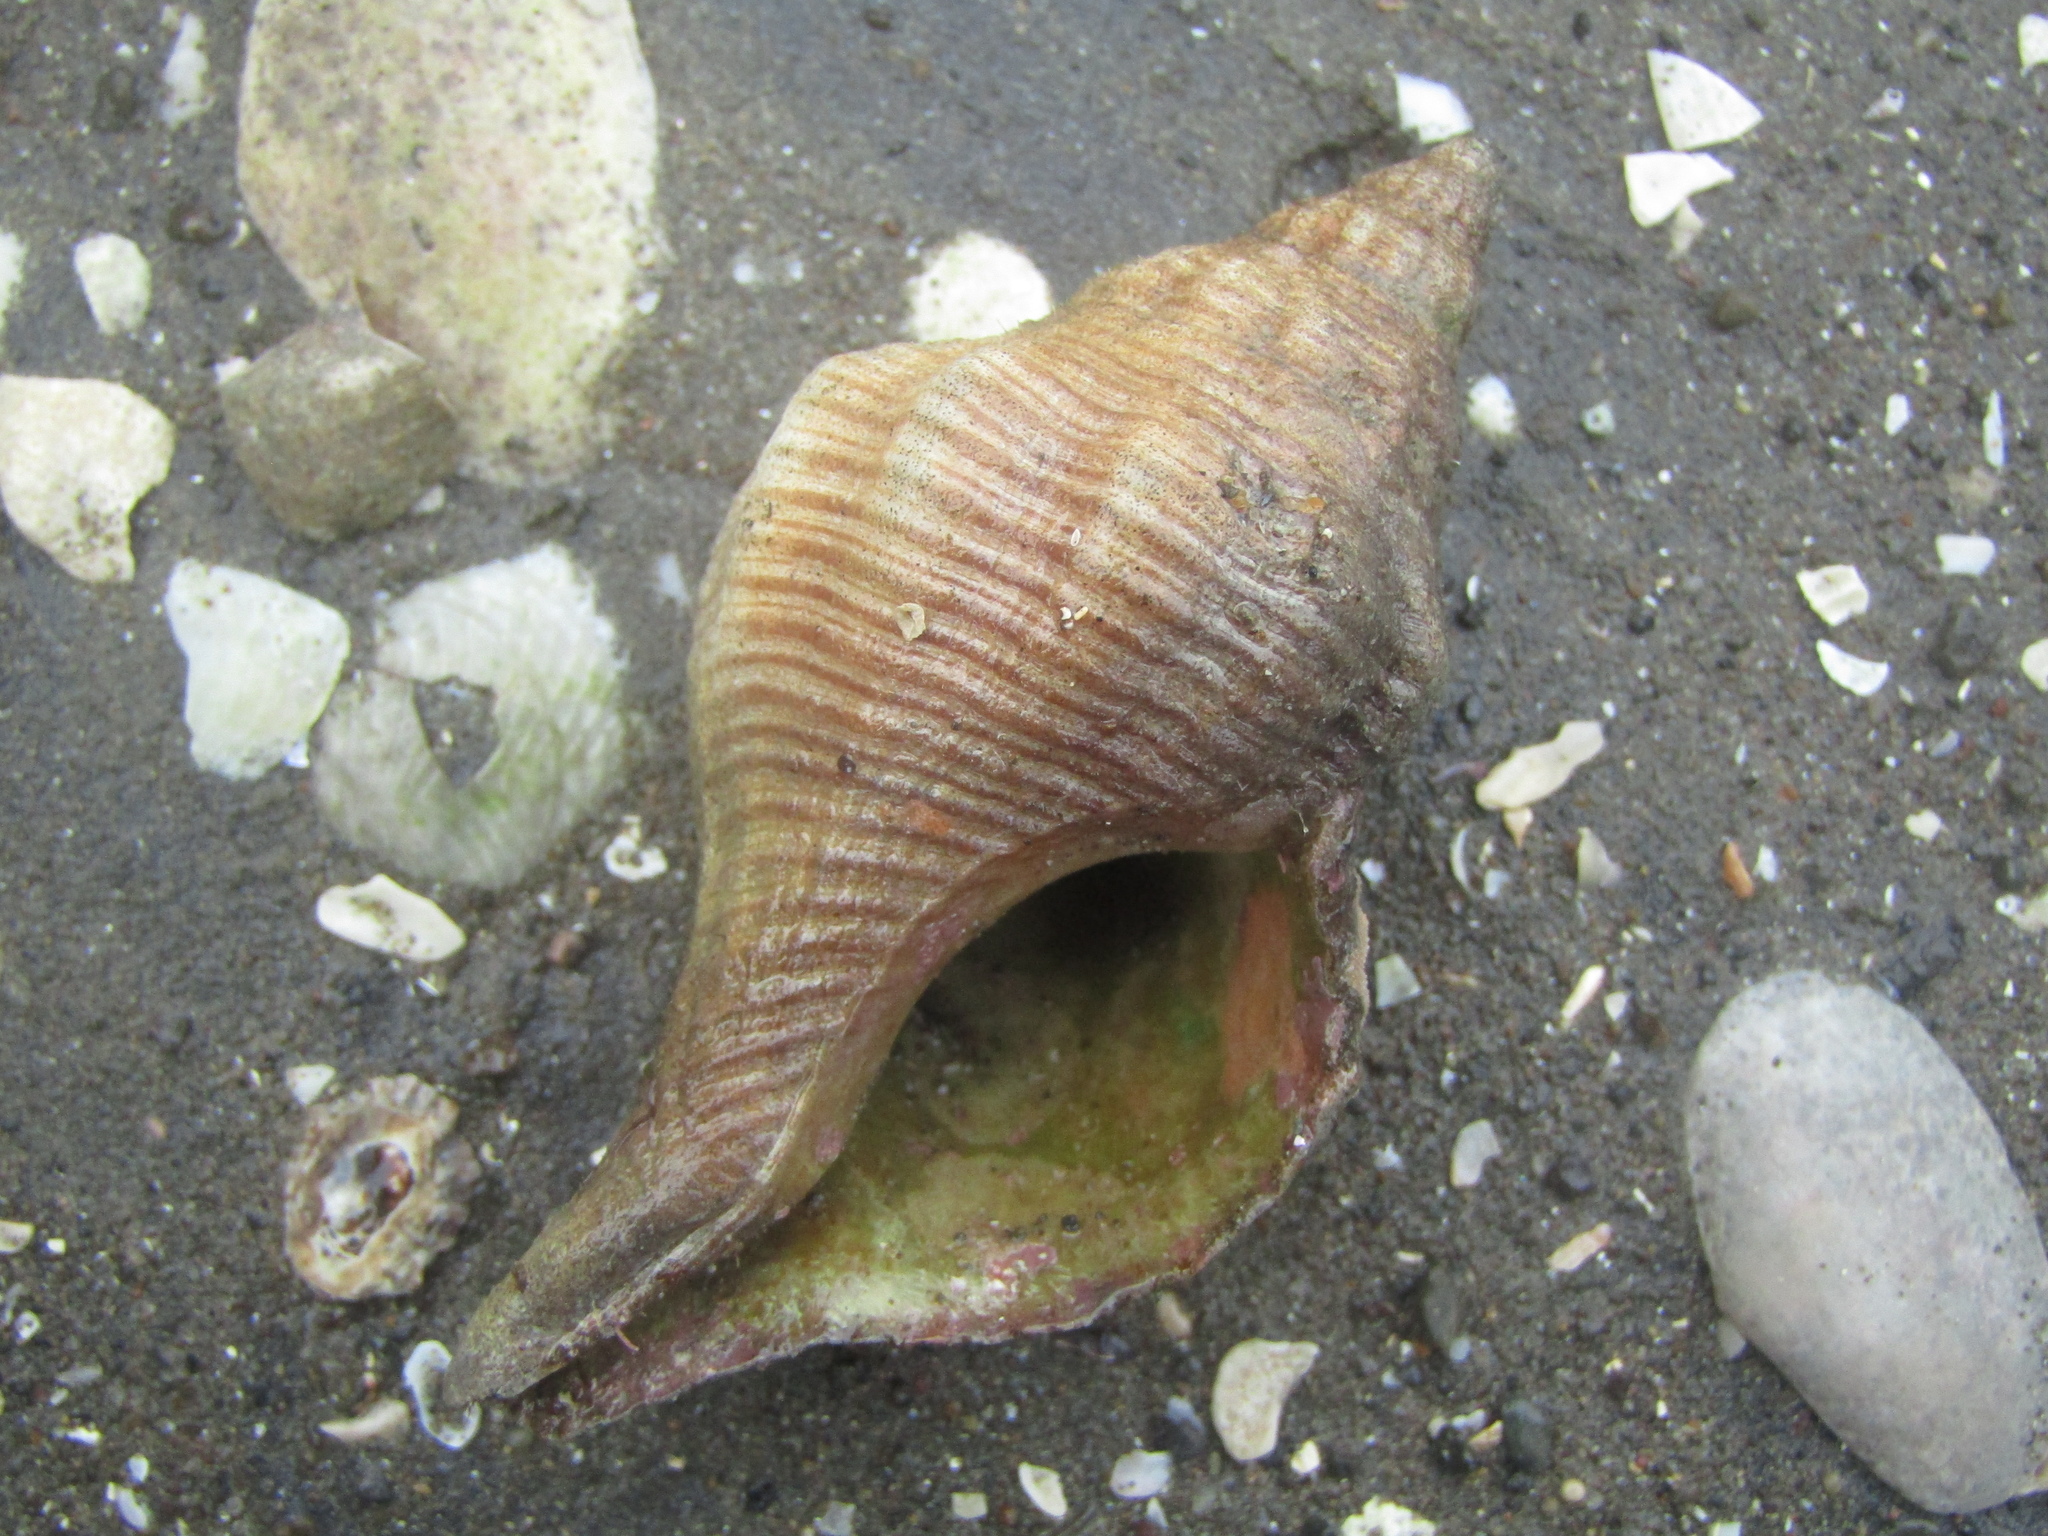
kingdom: Animalia
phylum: Mollusca
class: Gastropoda
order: Neogastropoda
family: Austrosiphonidae
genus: Penion
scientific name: Penion sulcatus
